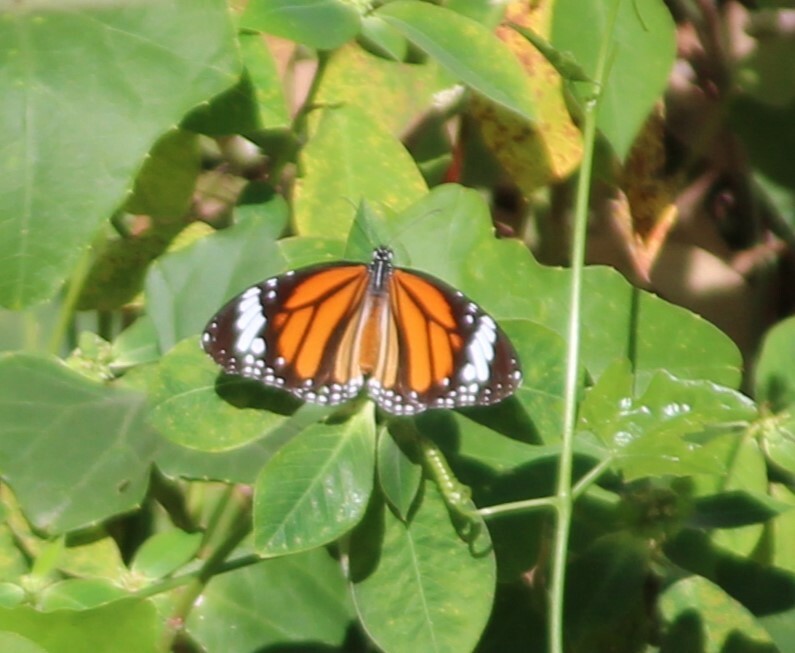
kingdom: Animalia
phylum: Arthropoda
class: Insecta
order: Lepidoptera
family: Nymphalidae
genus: Danaus
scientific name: Danaus genutia
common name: Common tiger butterfly
